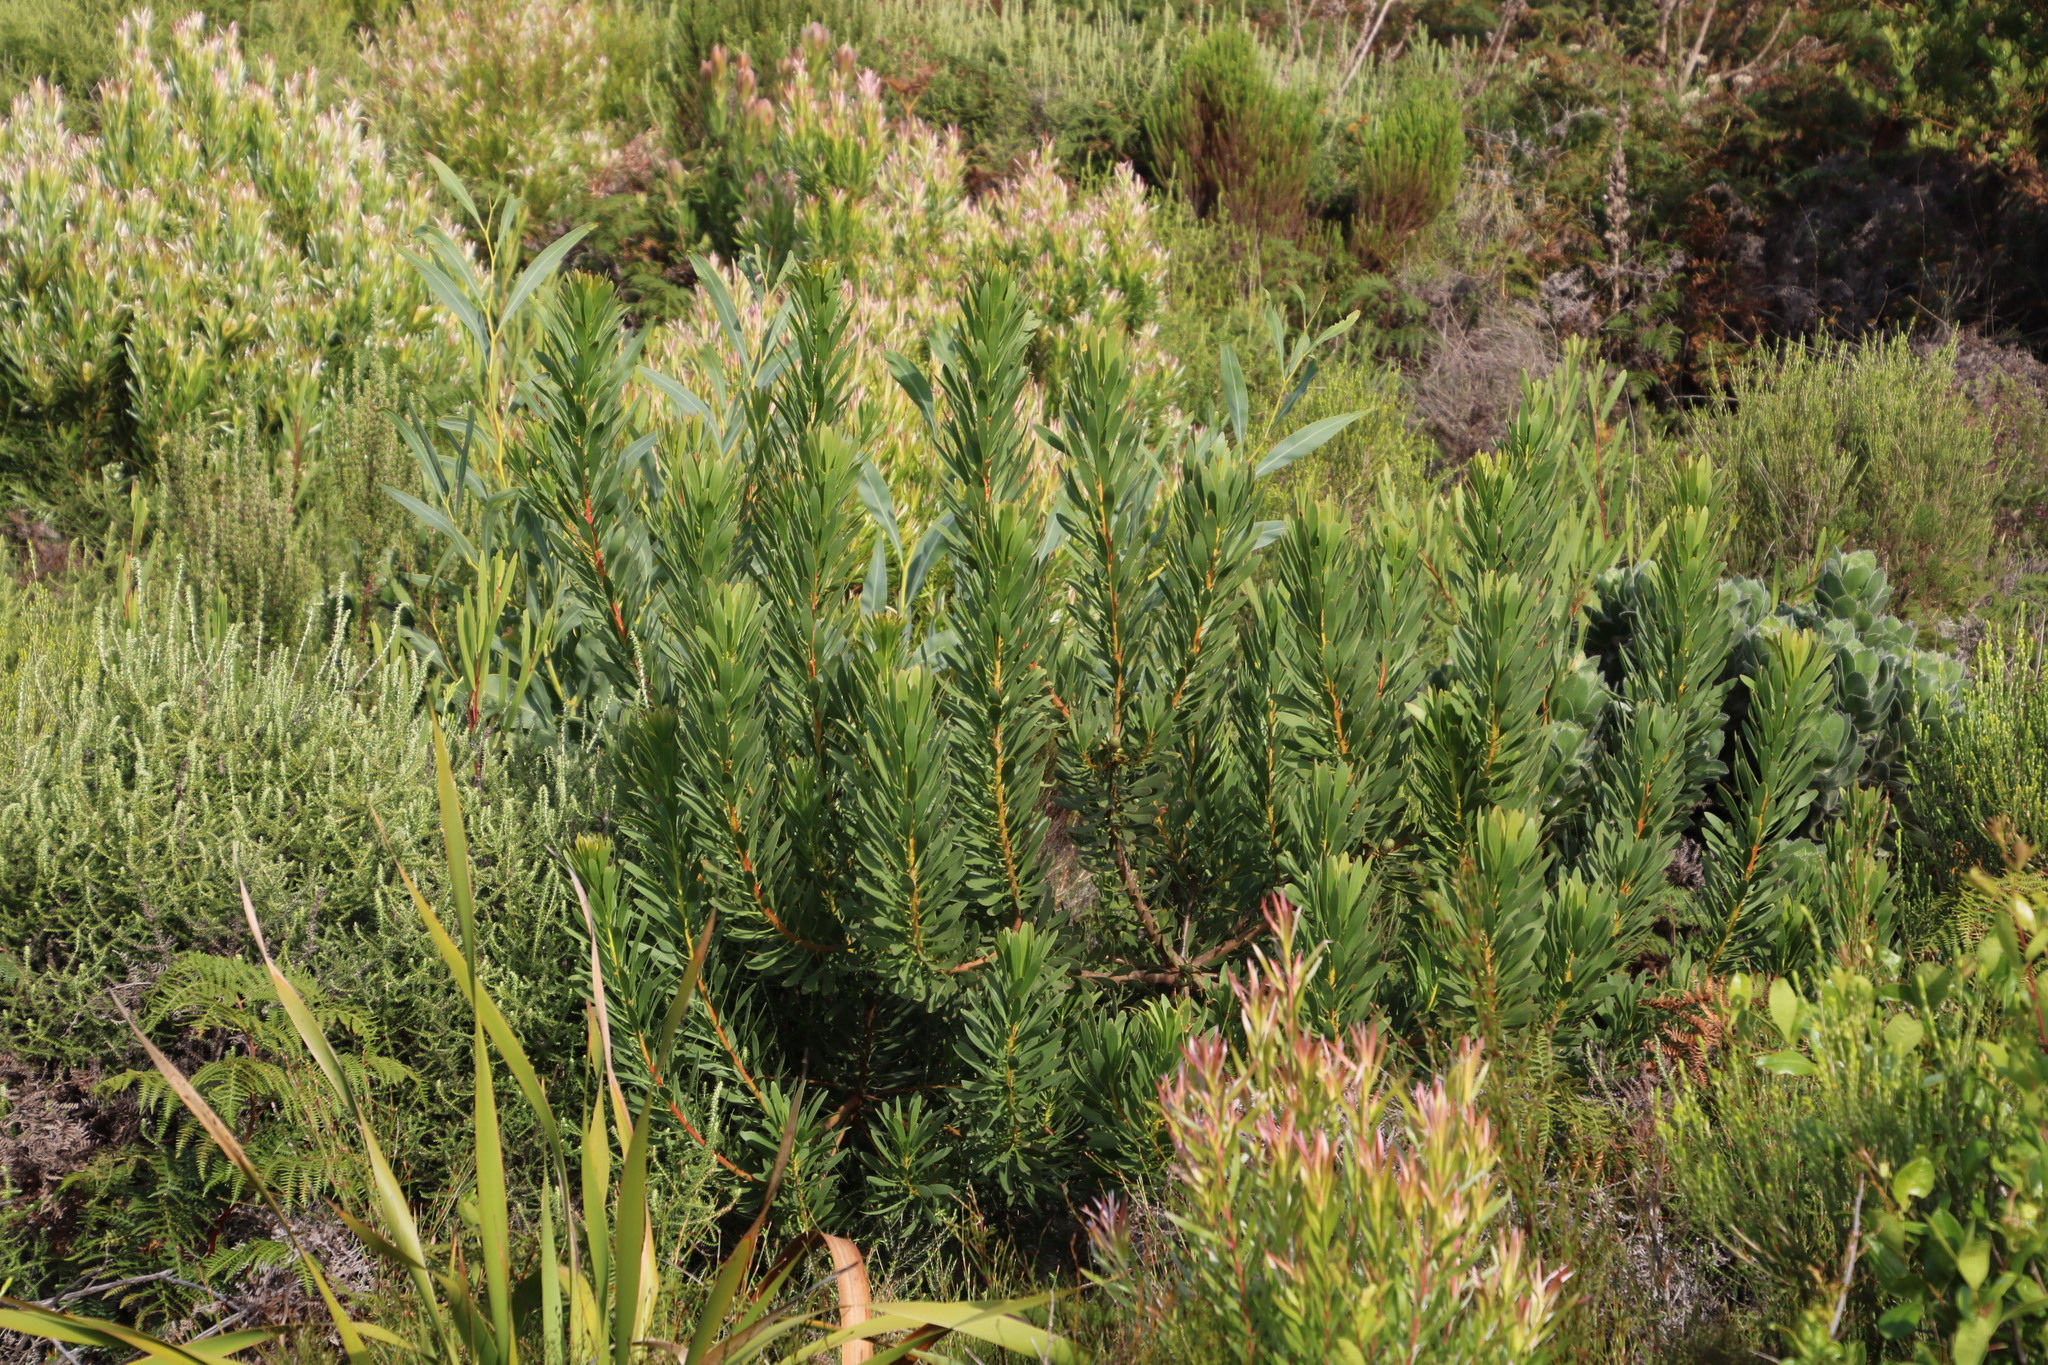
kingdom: Plantae
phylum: Tracheophyta
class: Magnoliopsida
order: Proteales
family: Proteaceae
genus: Protea
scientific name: Protea repens
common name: Sugarbush
